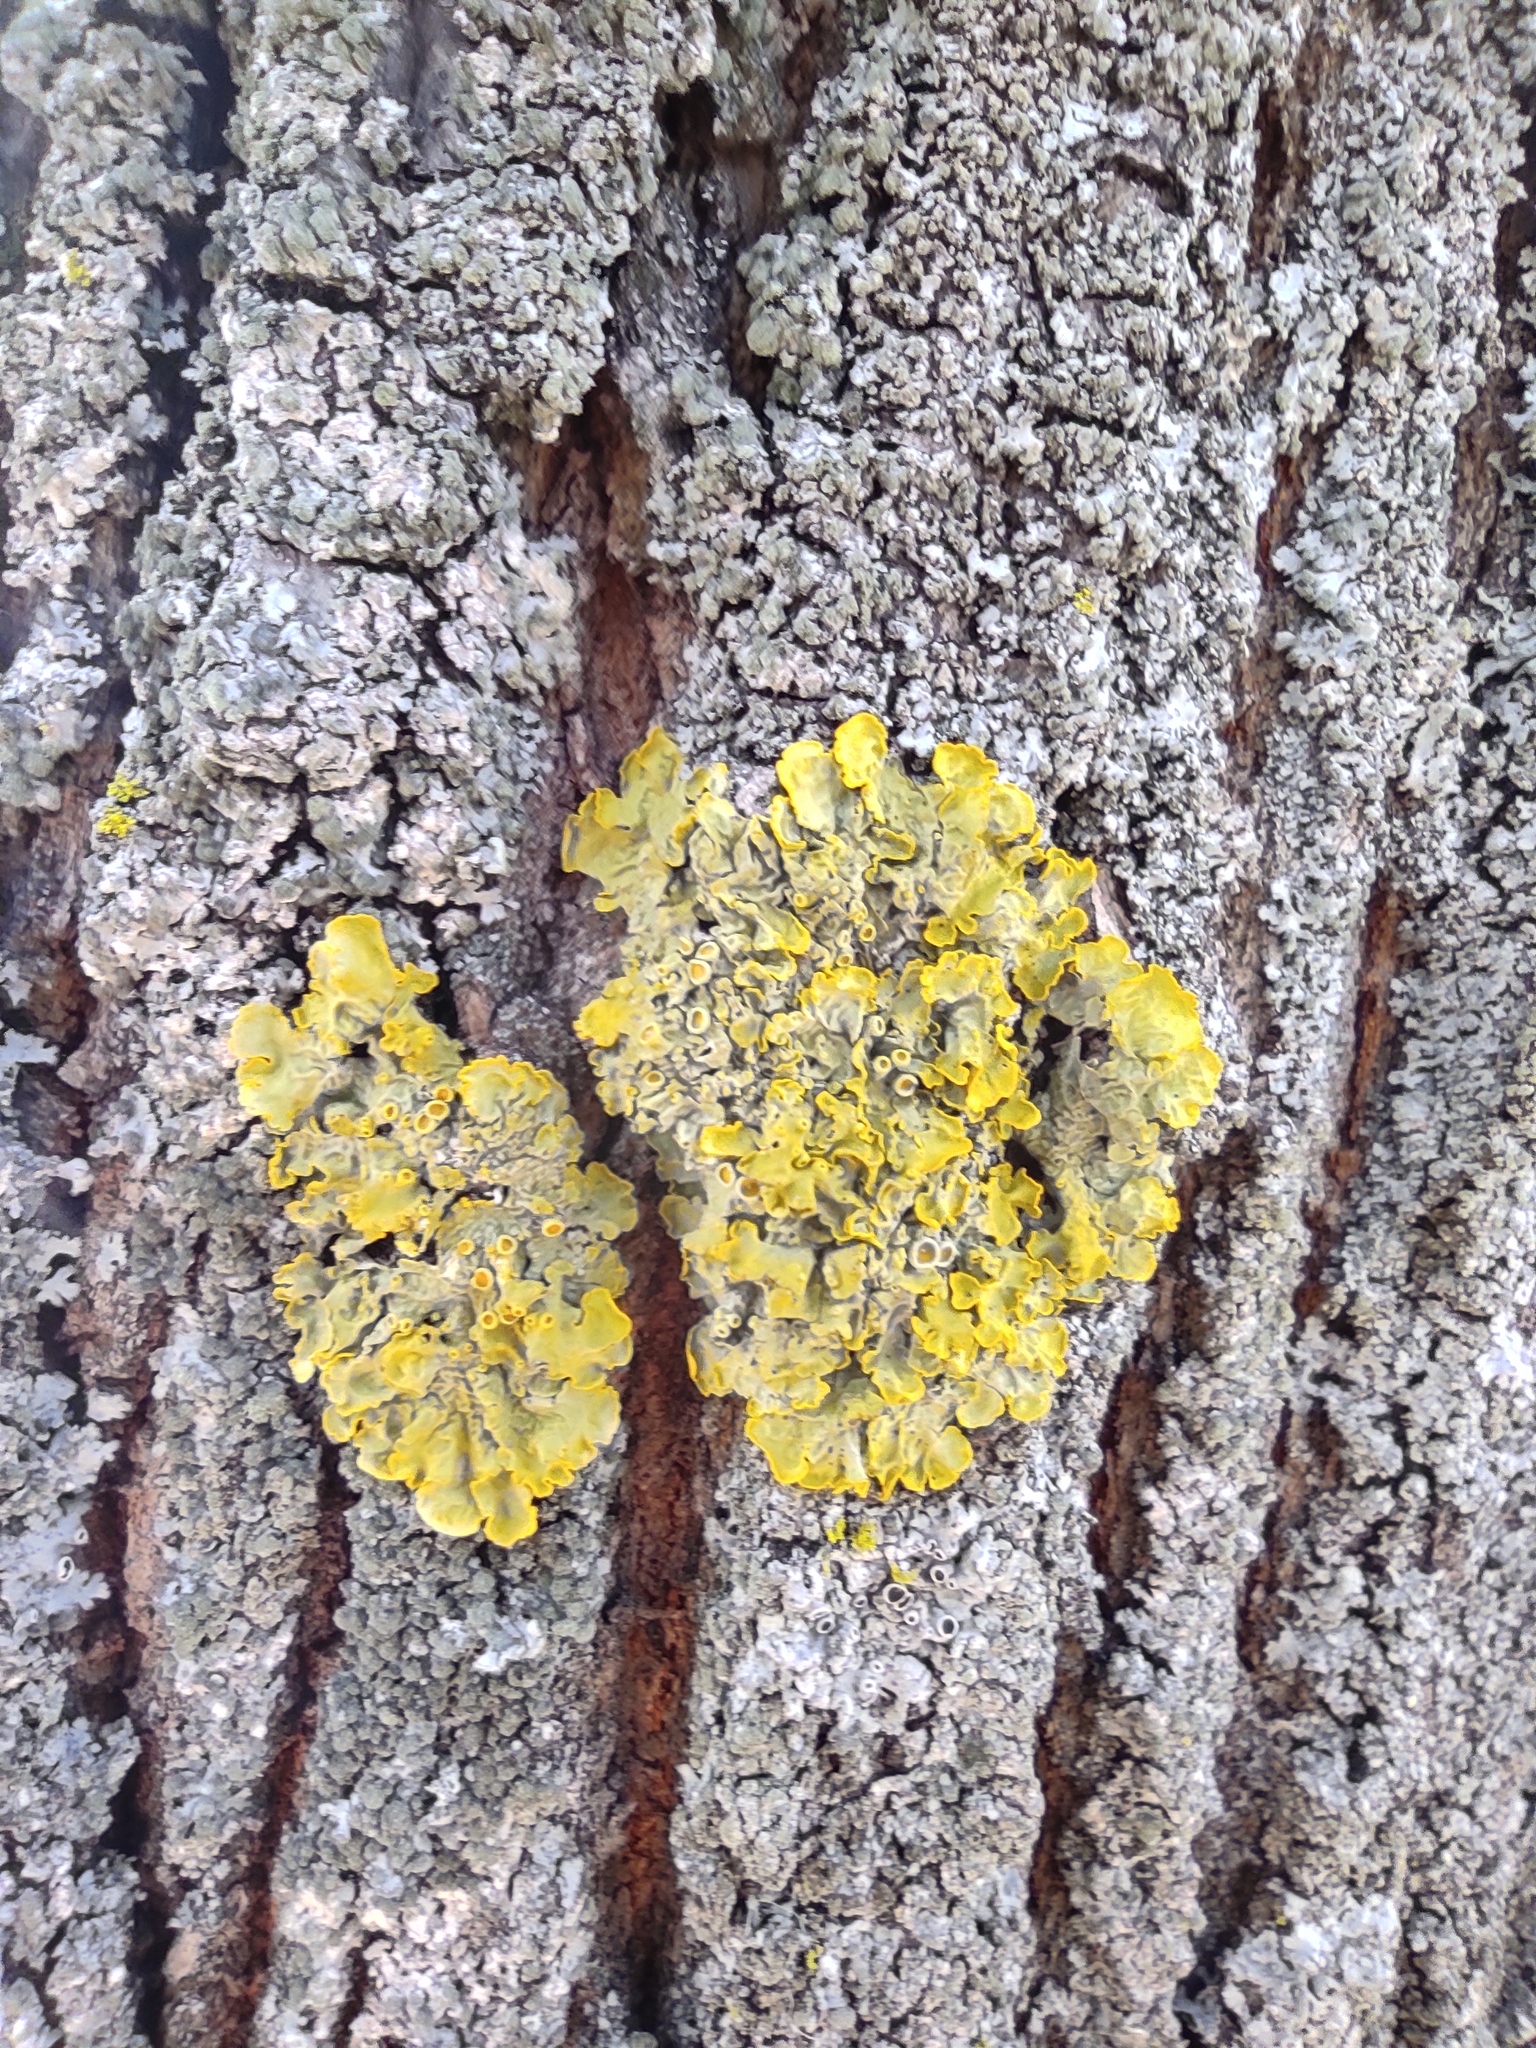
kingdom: Fungi
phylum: Ascomycota
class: Lecanoromycetes
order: Teloschistales
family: Teloschistaceae
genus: Xanthoria
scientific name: Xanthoria parietina
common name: Common orange lichen
